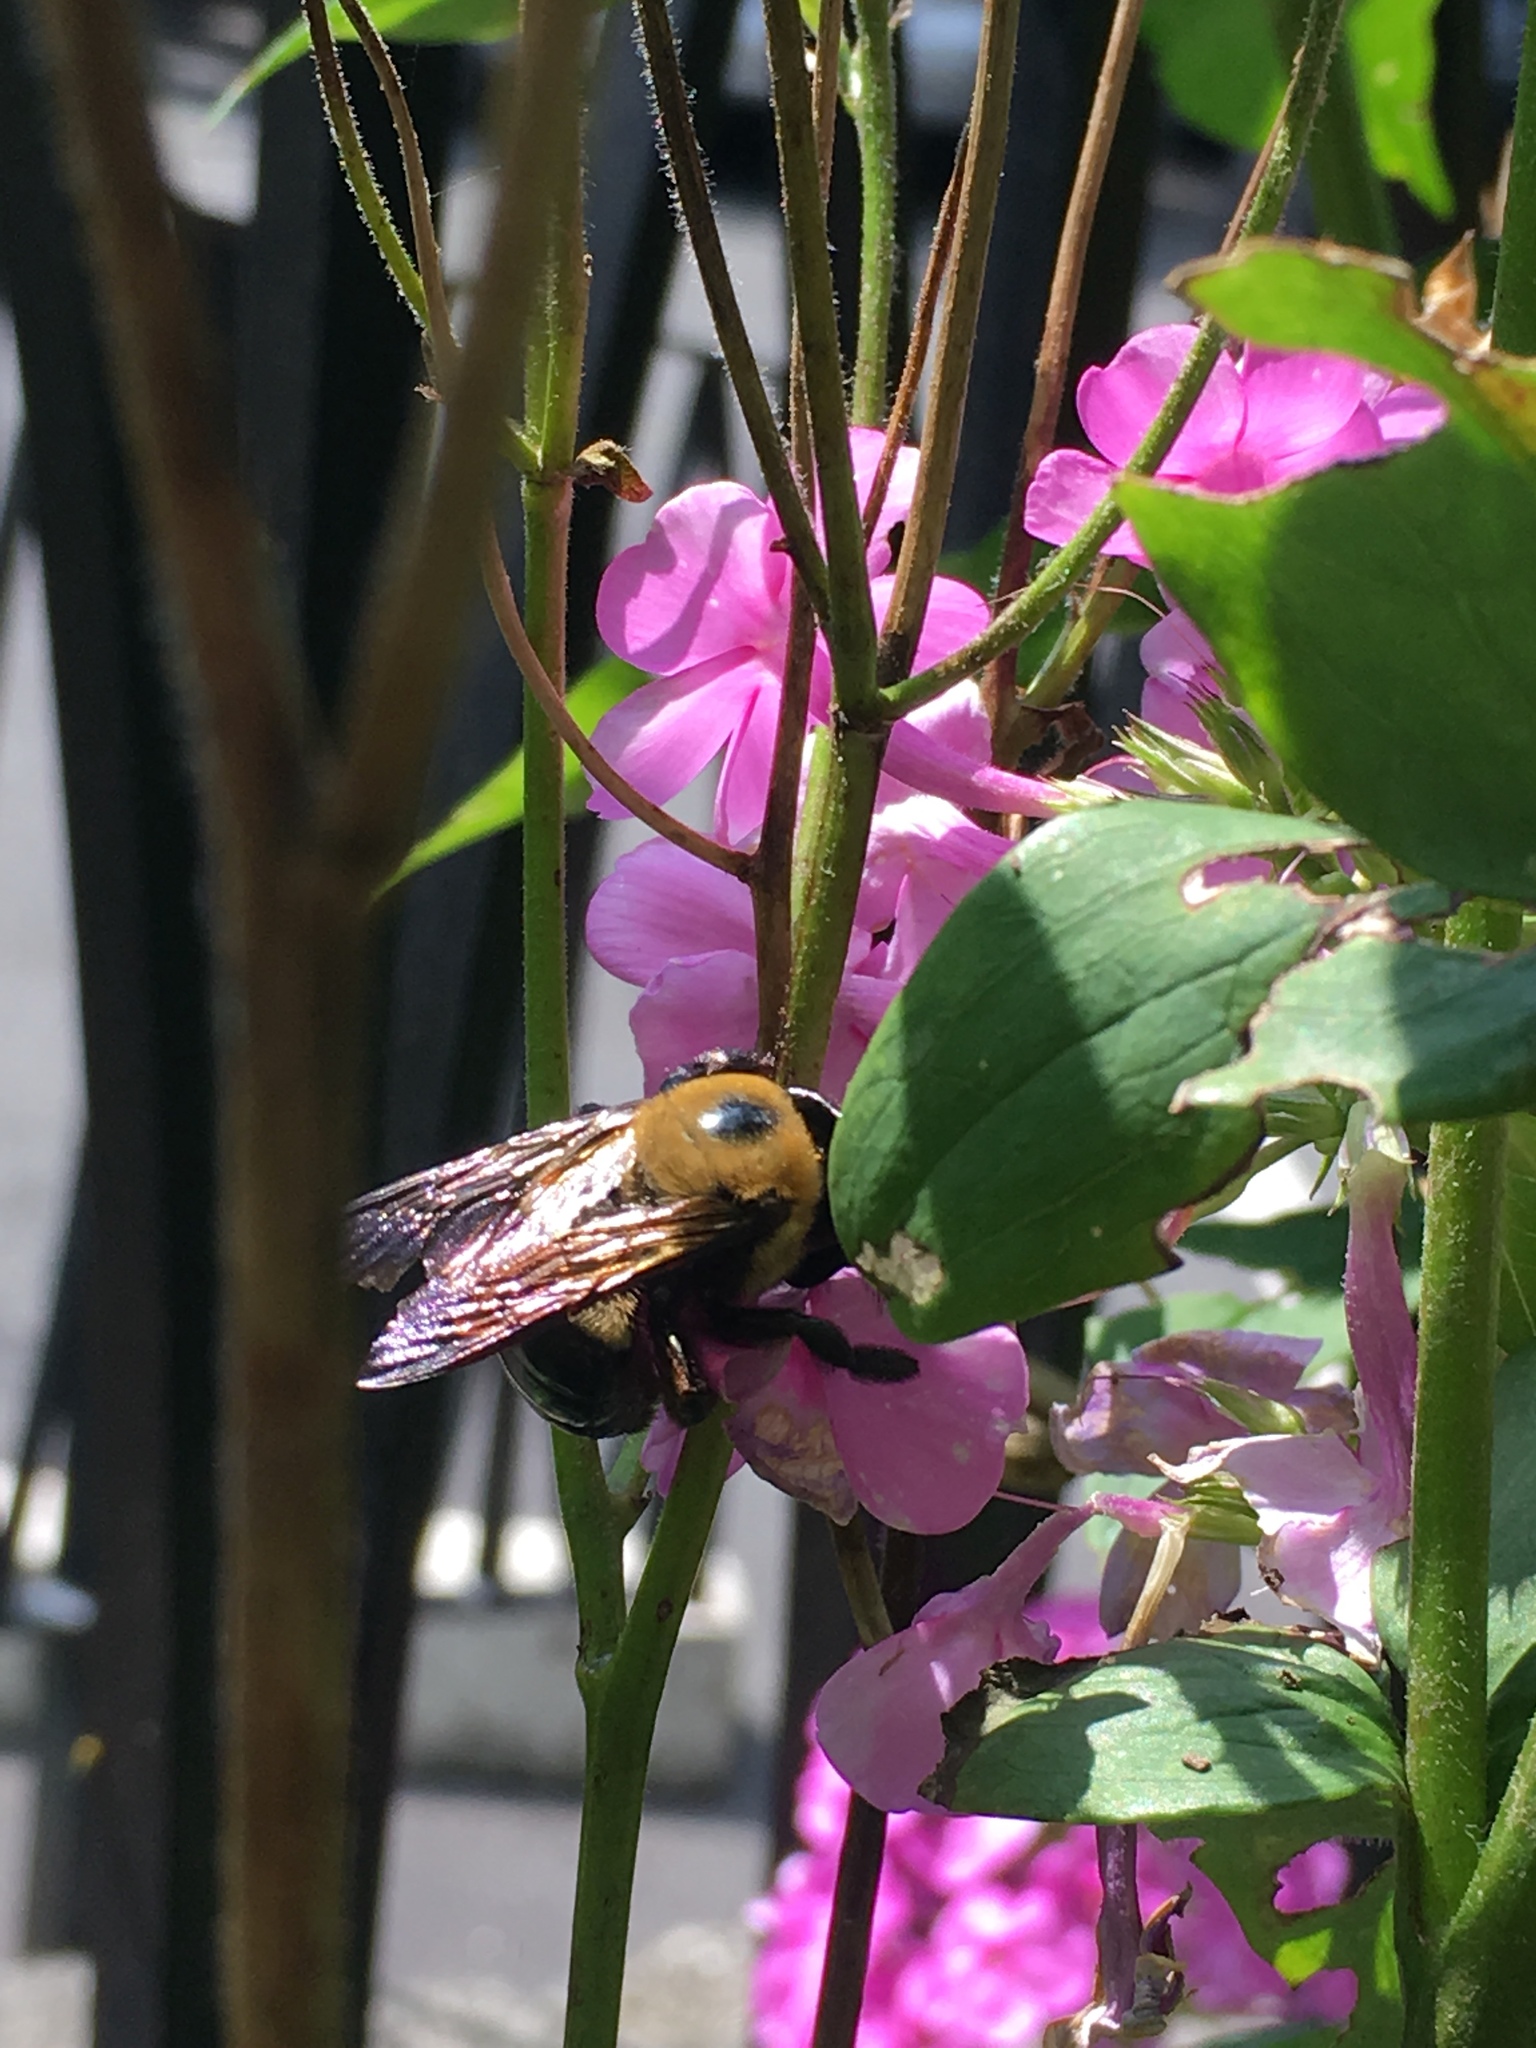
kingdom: Animalia
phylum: Arthropoda
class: Insecta
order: Hymenoptera
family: Apidae
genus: Xylocopa
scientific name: Xylocopa virginica
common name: Carpenter bee
